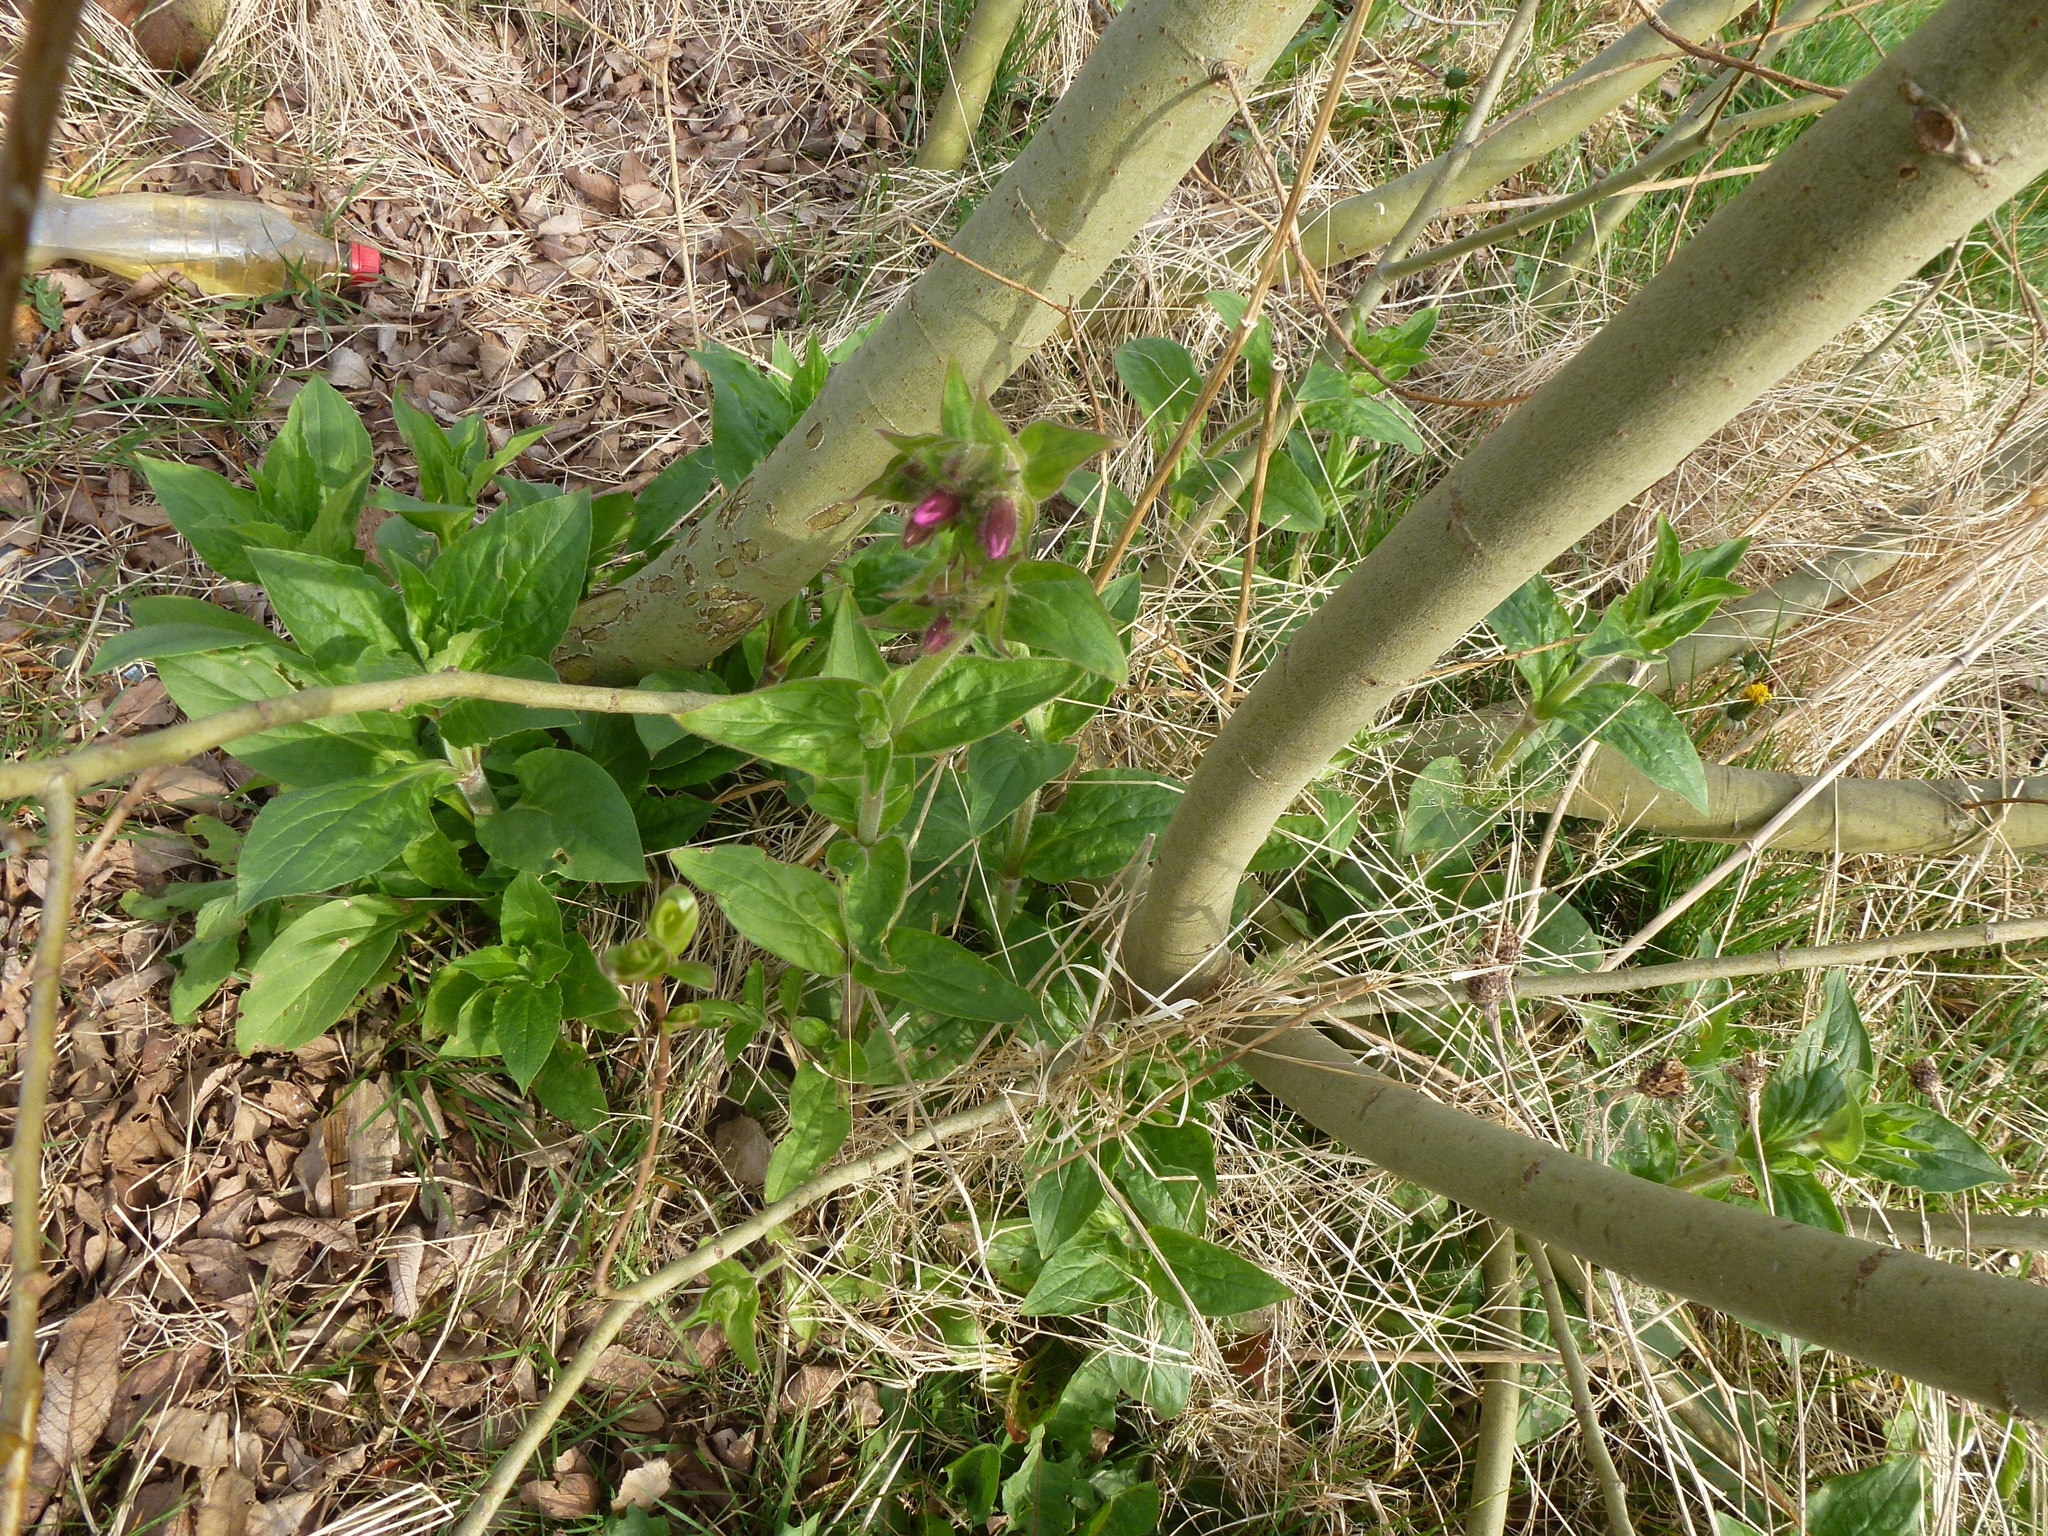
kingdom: Plantae
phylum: Tracheophyta
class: Magnoliopsida
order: Caryophyllales
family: Caryophyllaceae
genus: Silene
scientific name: Silene dioica
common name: Red campion
